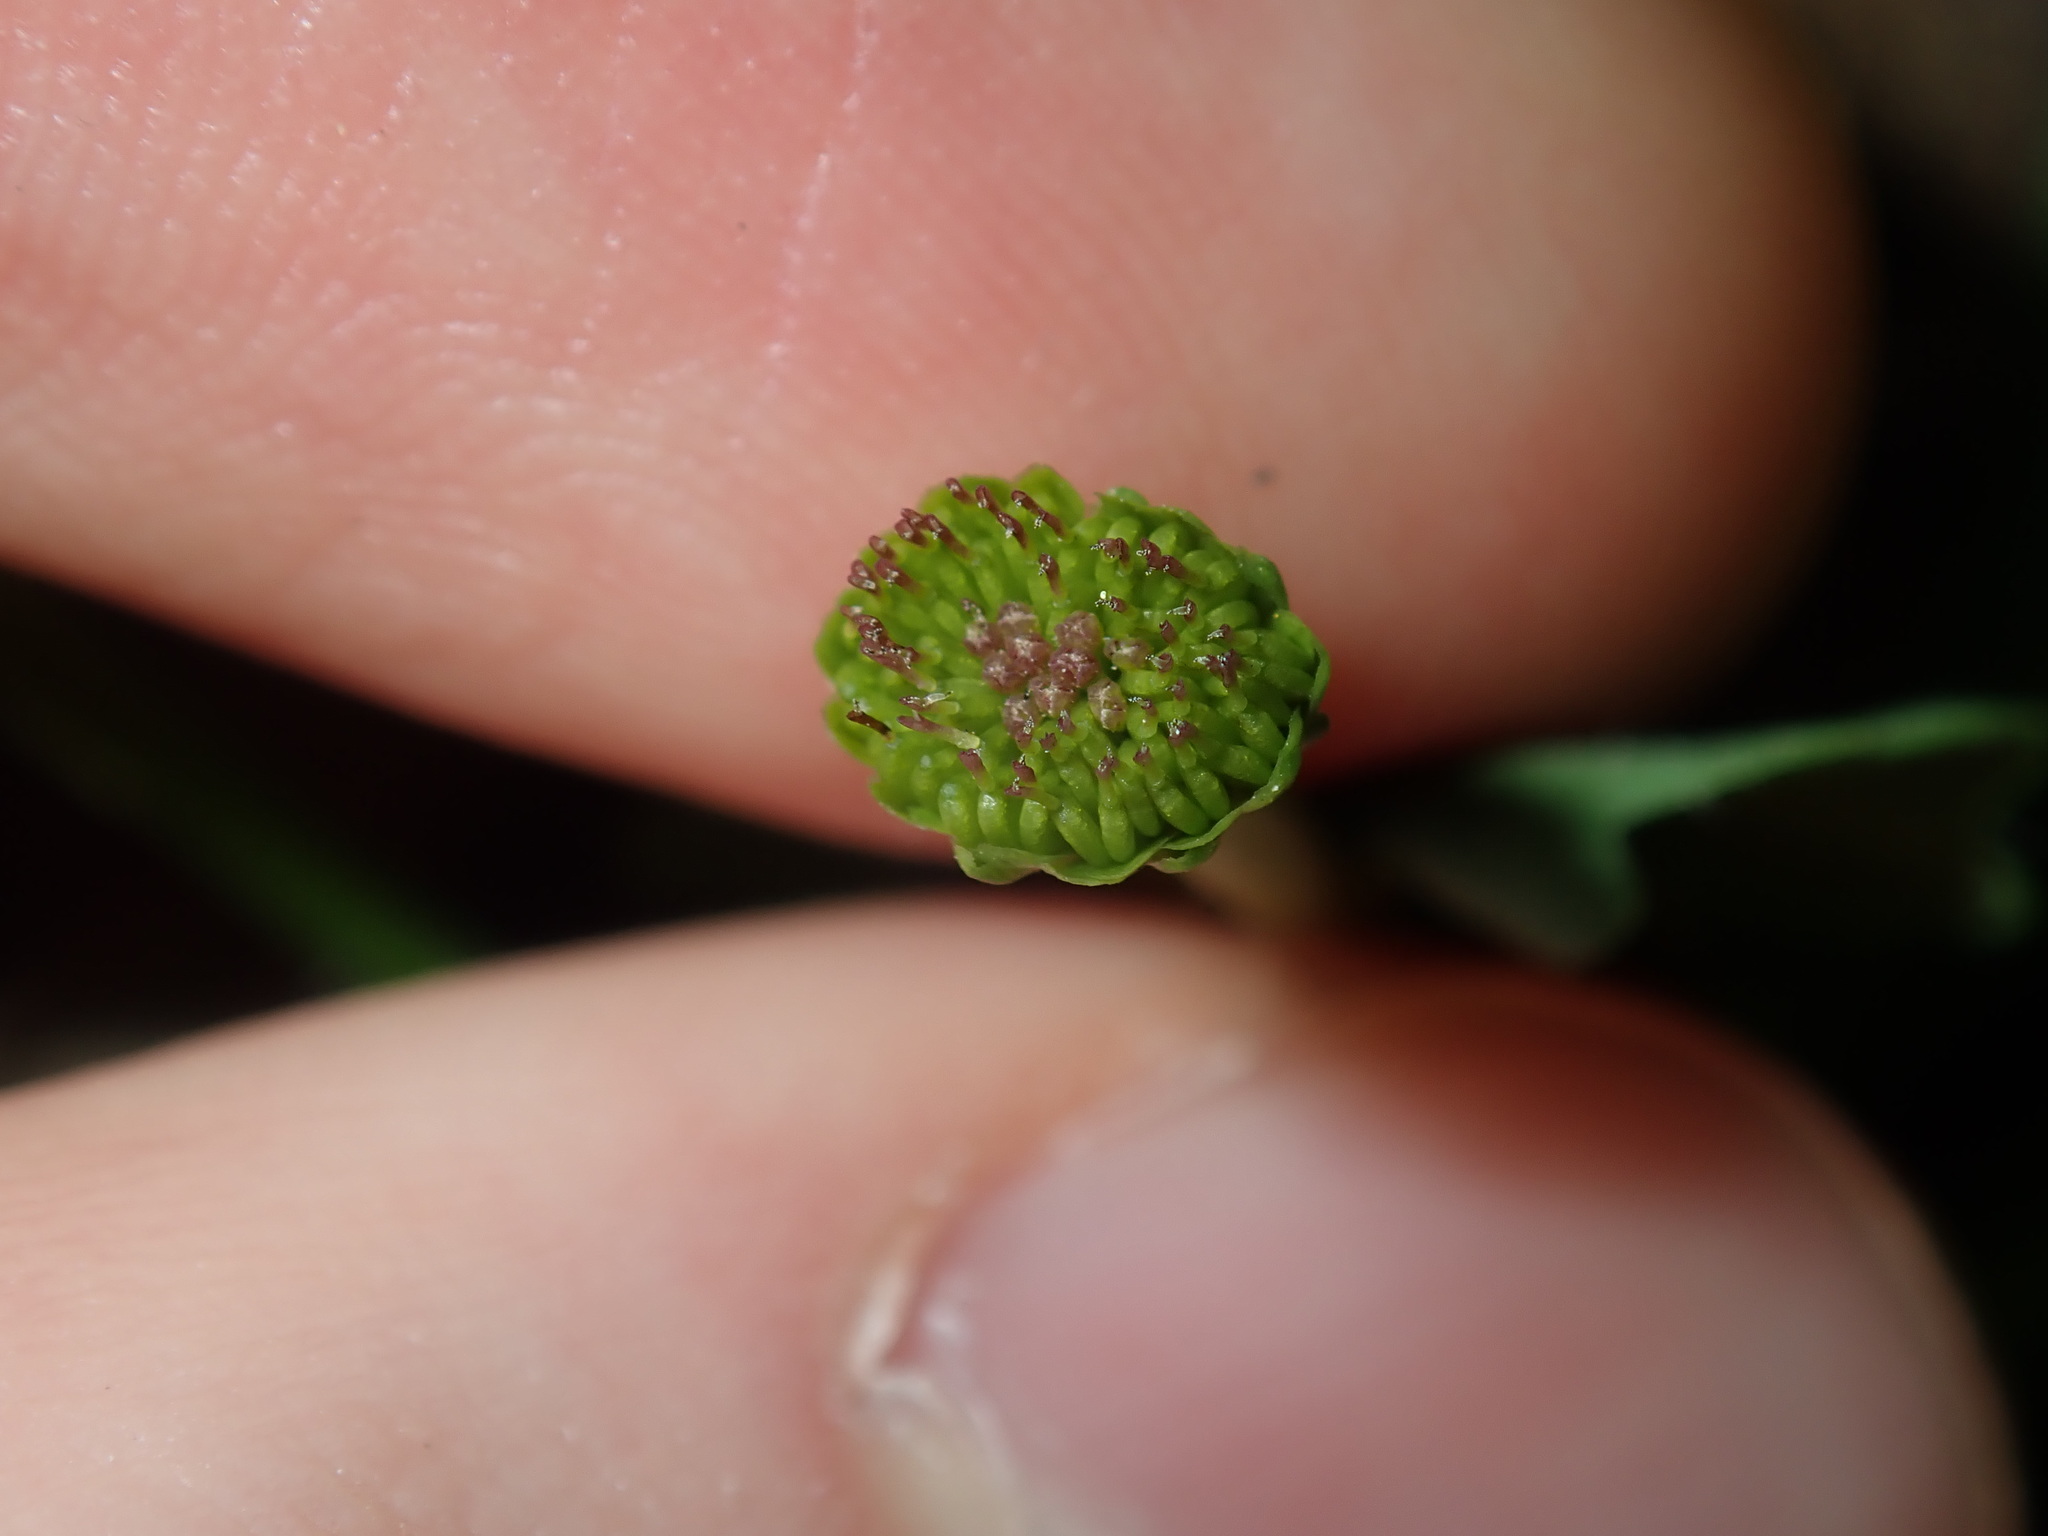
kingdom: Plantae
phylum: Tracheophyta
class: Magnoliopsida
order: Asterales
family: Asteraceae
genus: Solenogyne
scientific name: Solenogyne dominii
